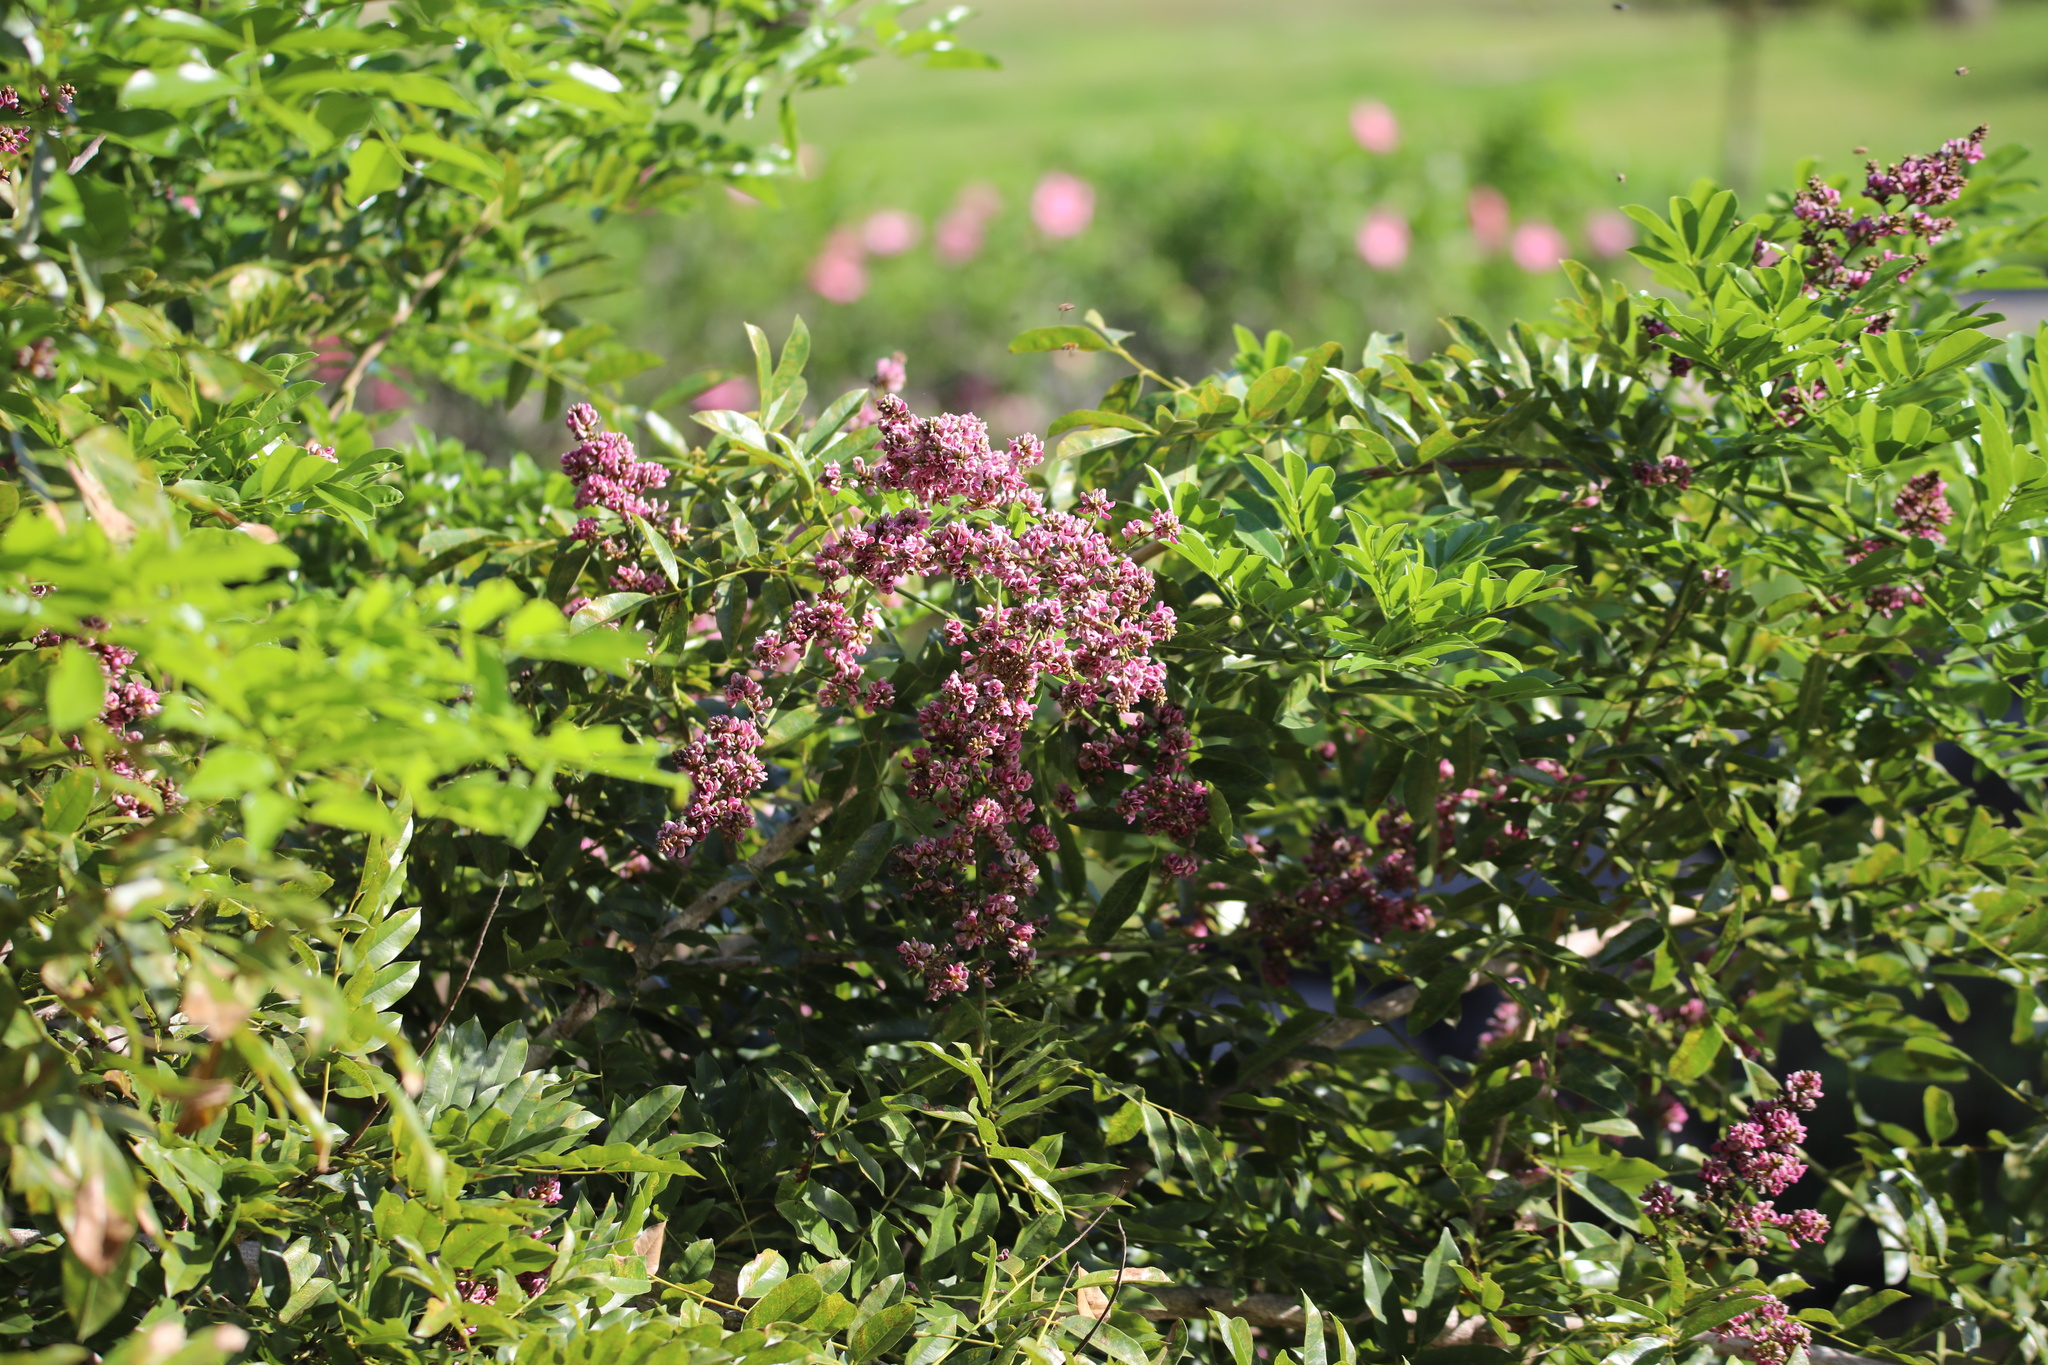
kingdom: Plantae
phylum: Tracheophyta
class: Magnoliopsida
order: Fabales
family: Fabaceae
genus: Andira
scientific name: Andira inermis
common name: Angelin
